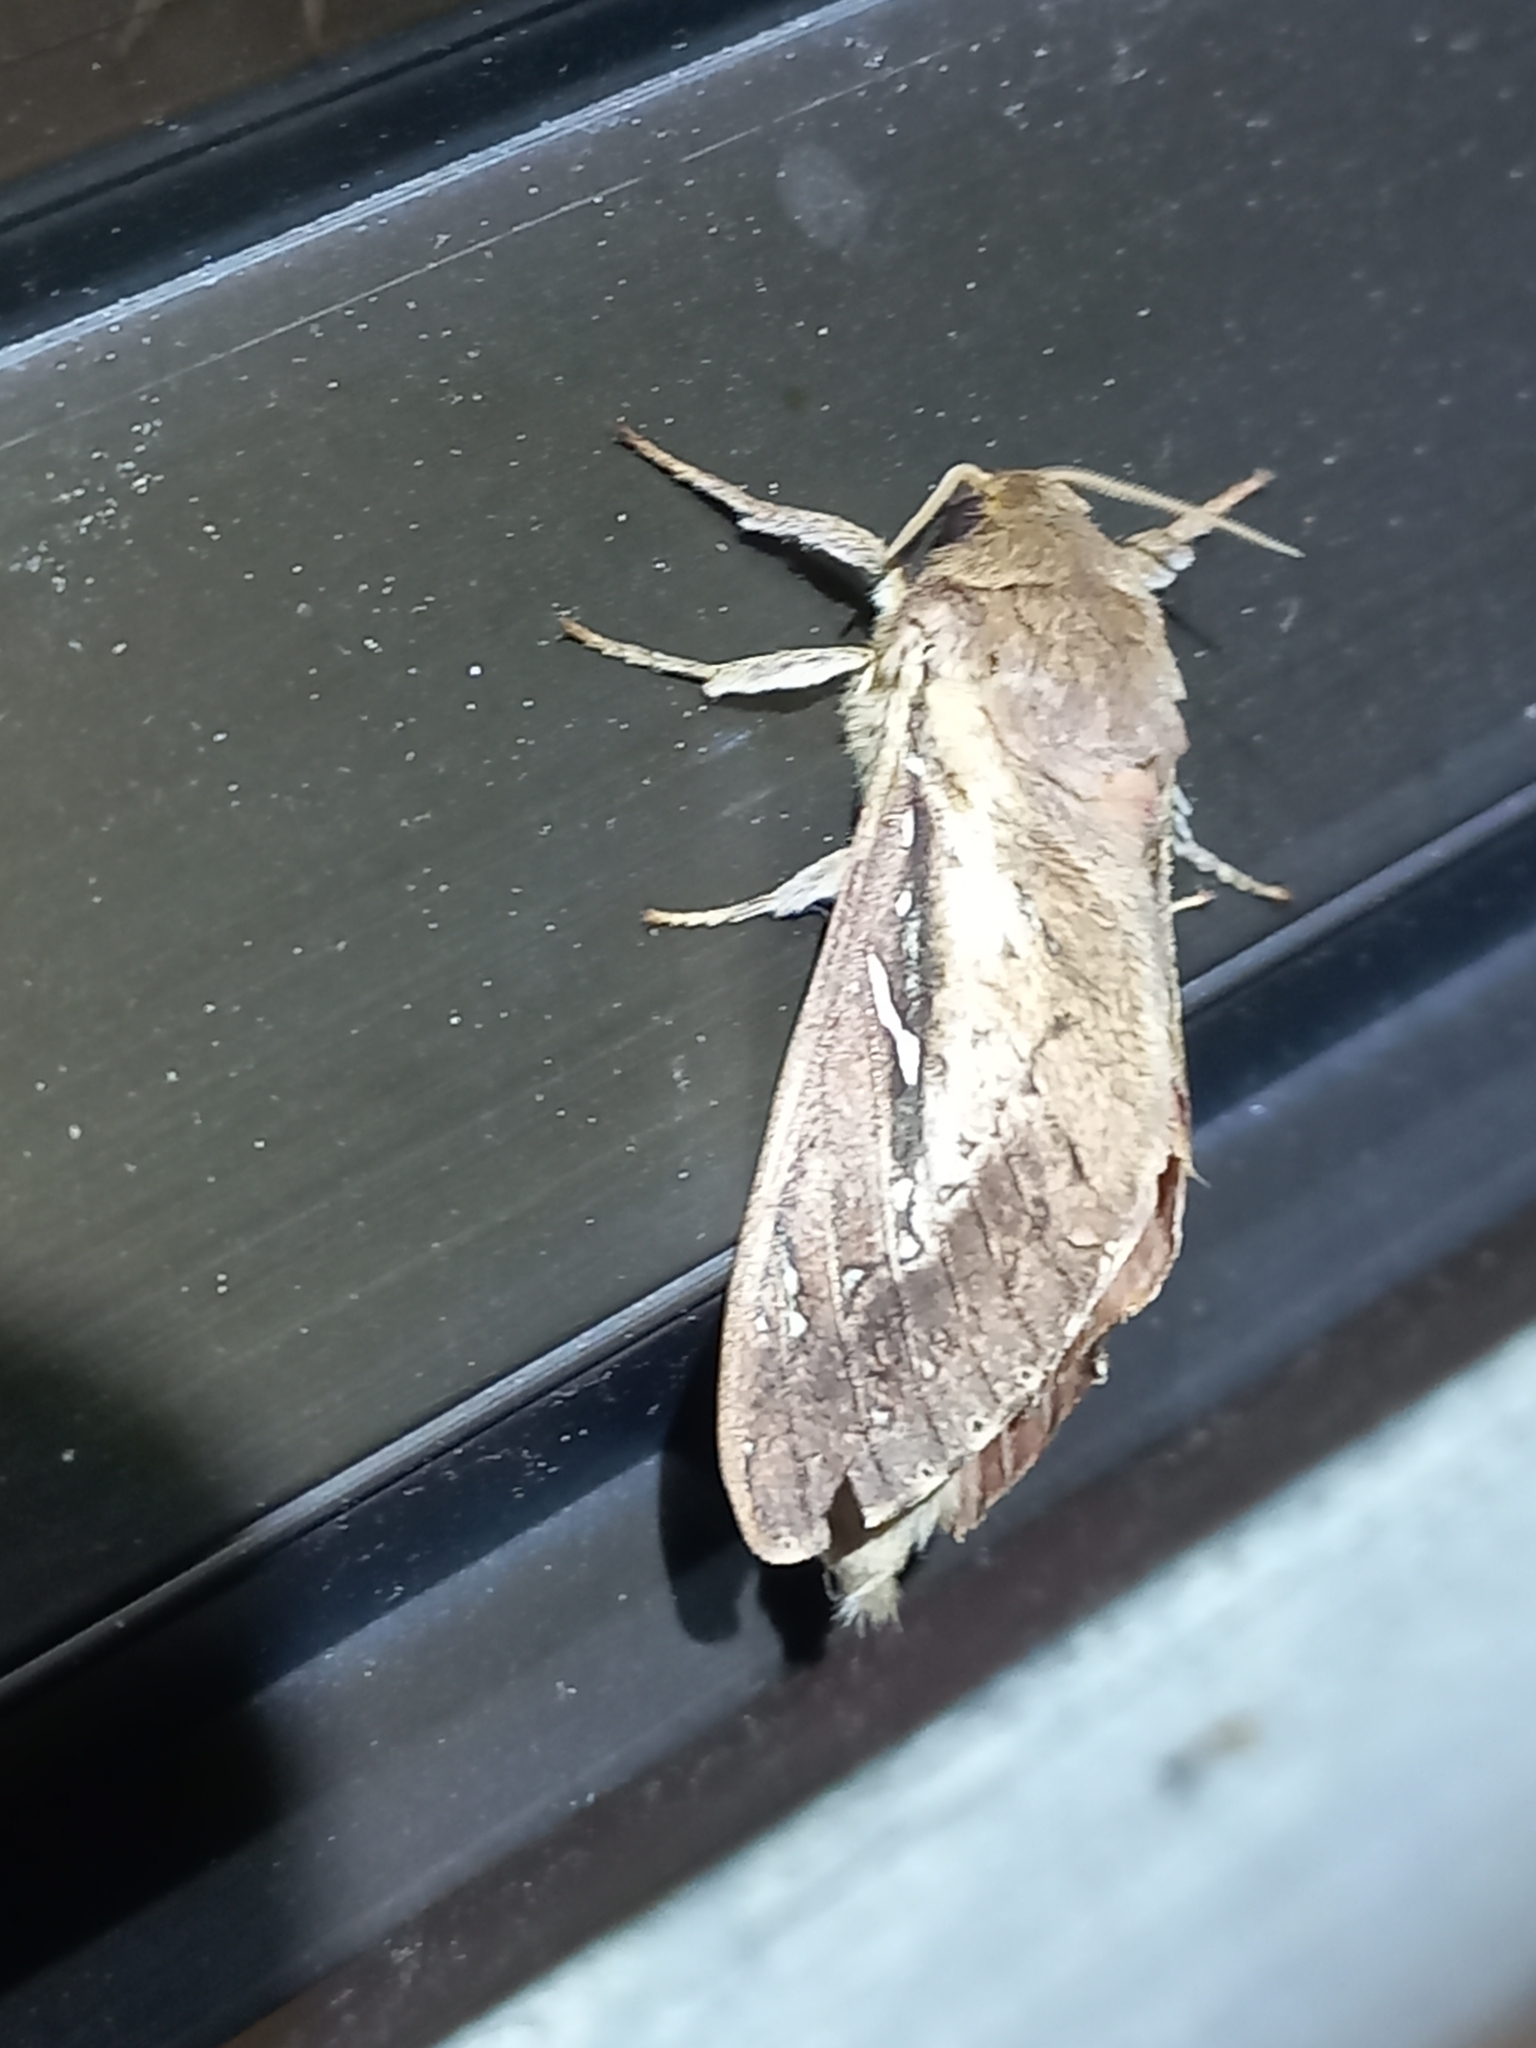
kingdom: Animalia
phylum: Arthropoda
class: Insecta
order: Lepidoptera
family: Hepialidae
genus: Wiseana
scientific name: Wiseana signata
